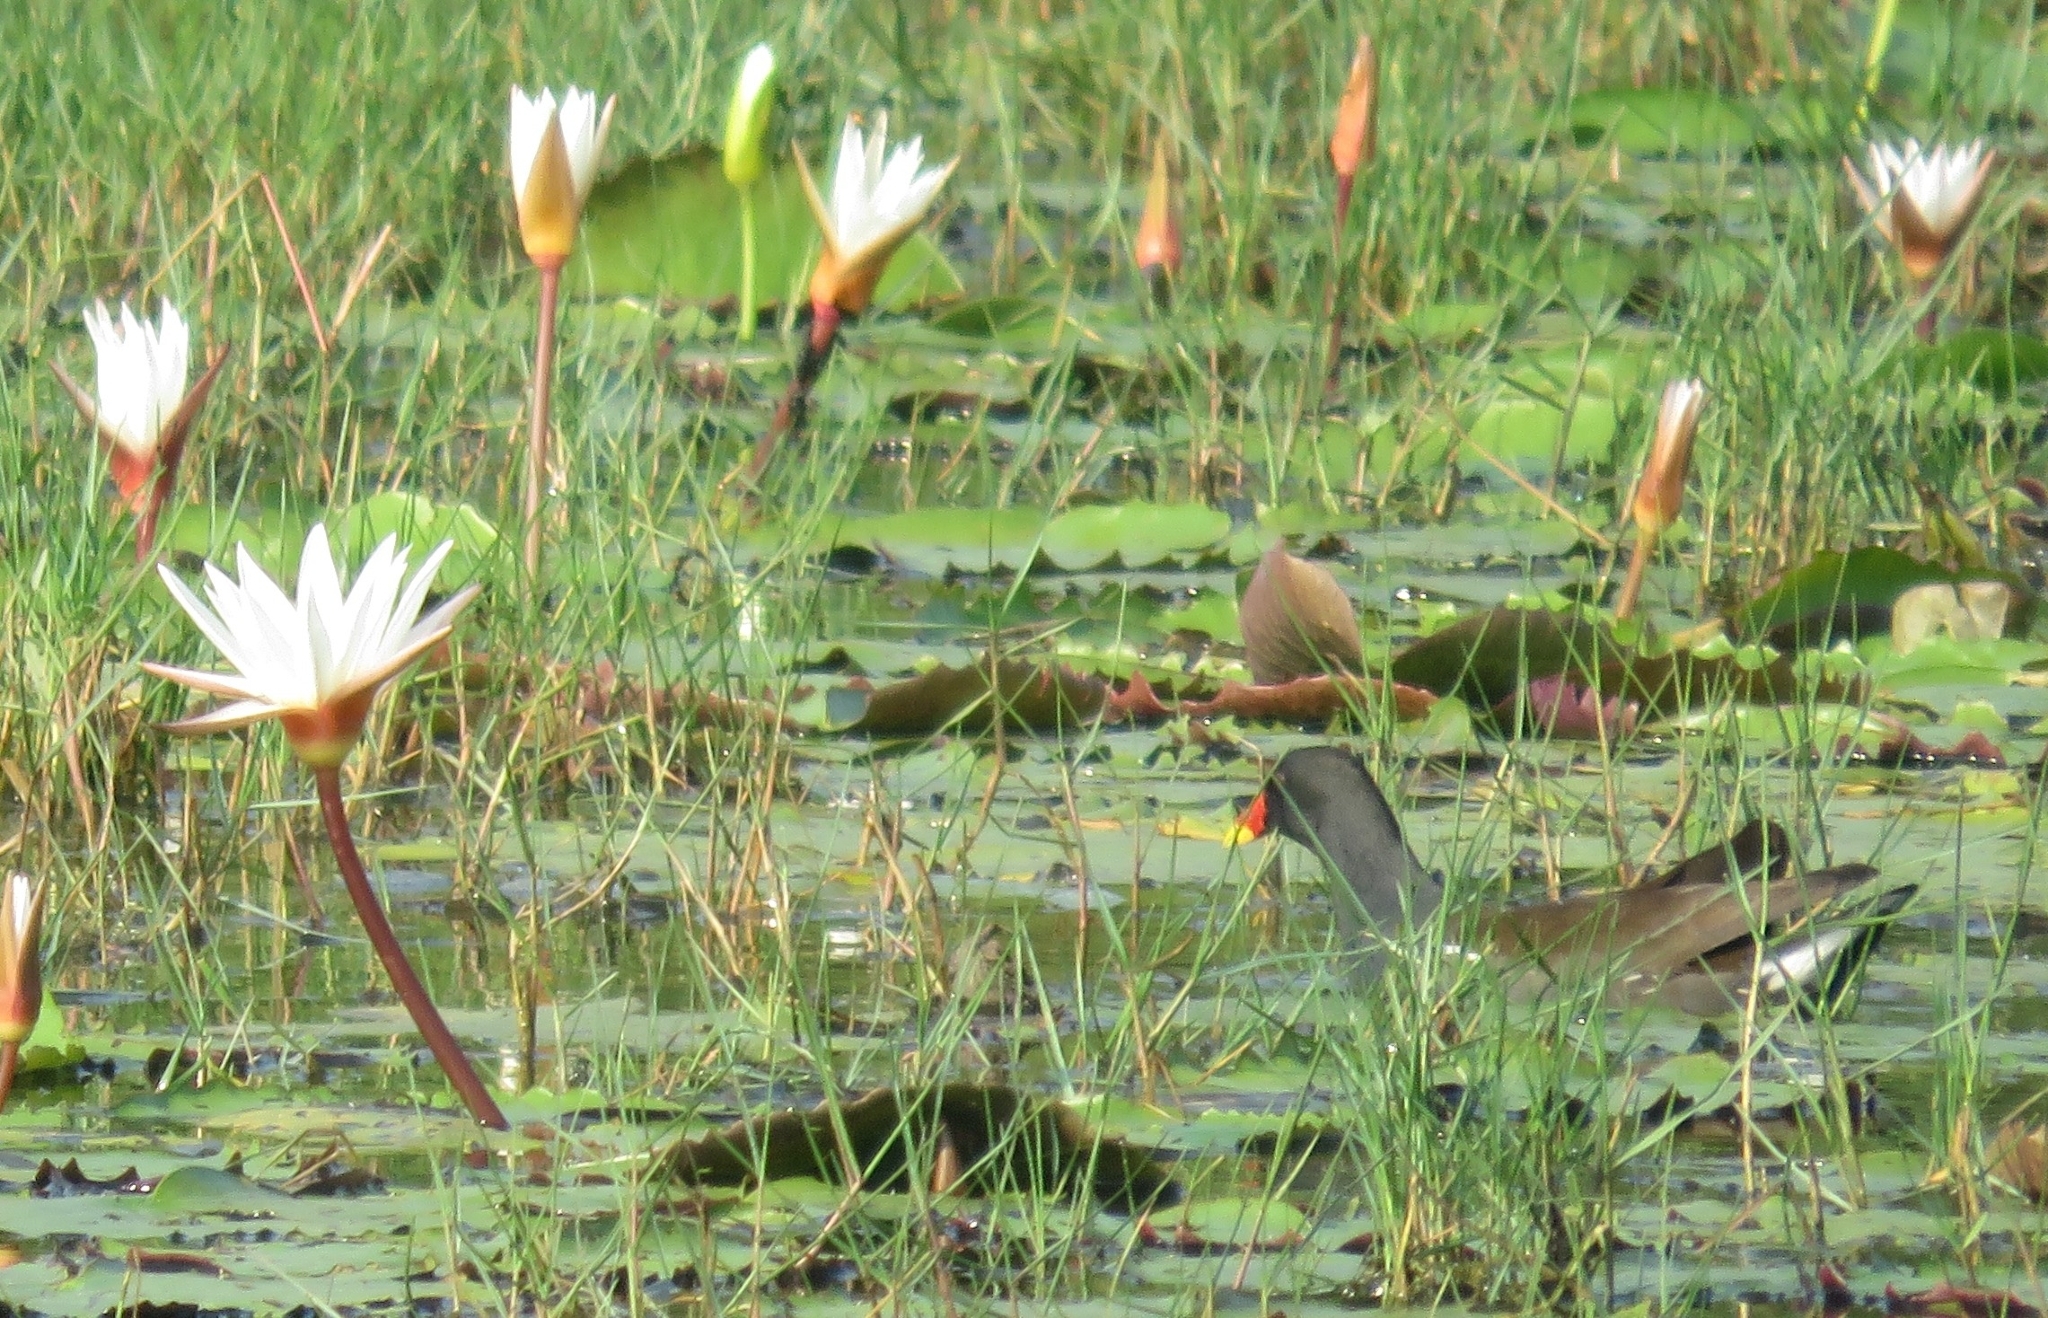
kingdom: Animalia
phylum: Chordata
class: Aves
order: Gruiformes
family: Rallidae
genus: Gallinula
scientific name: Gallinula chloropus
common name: Common moorhen
